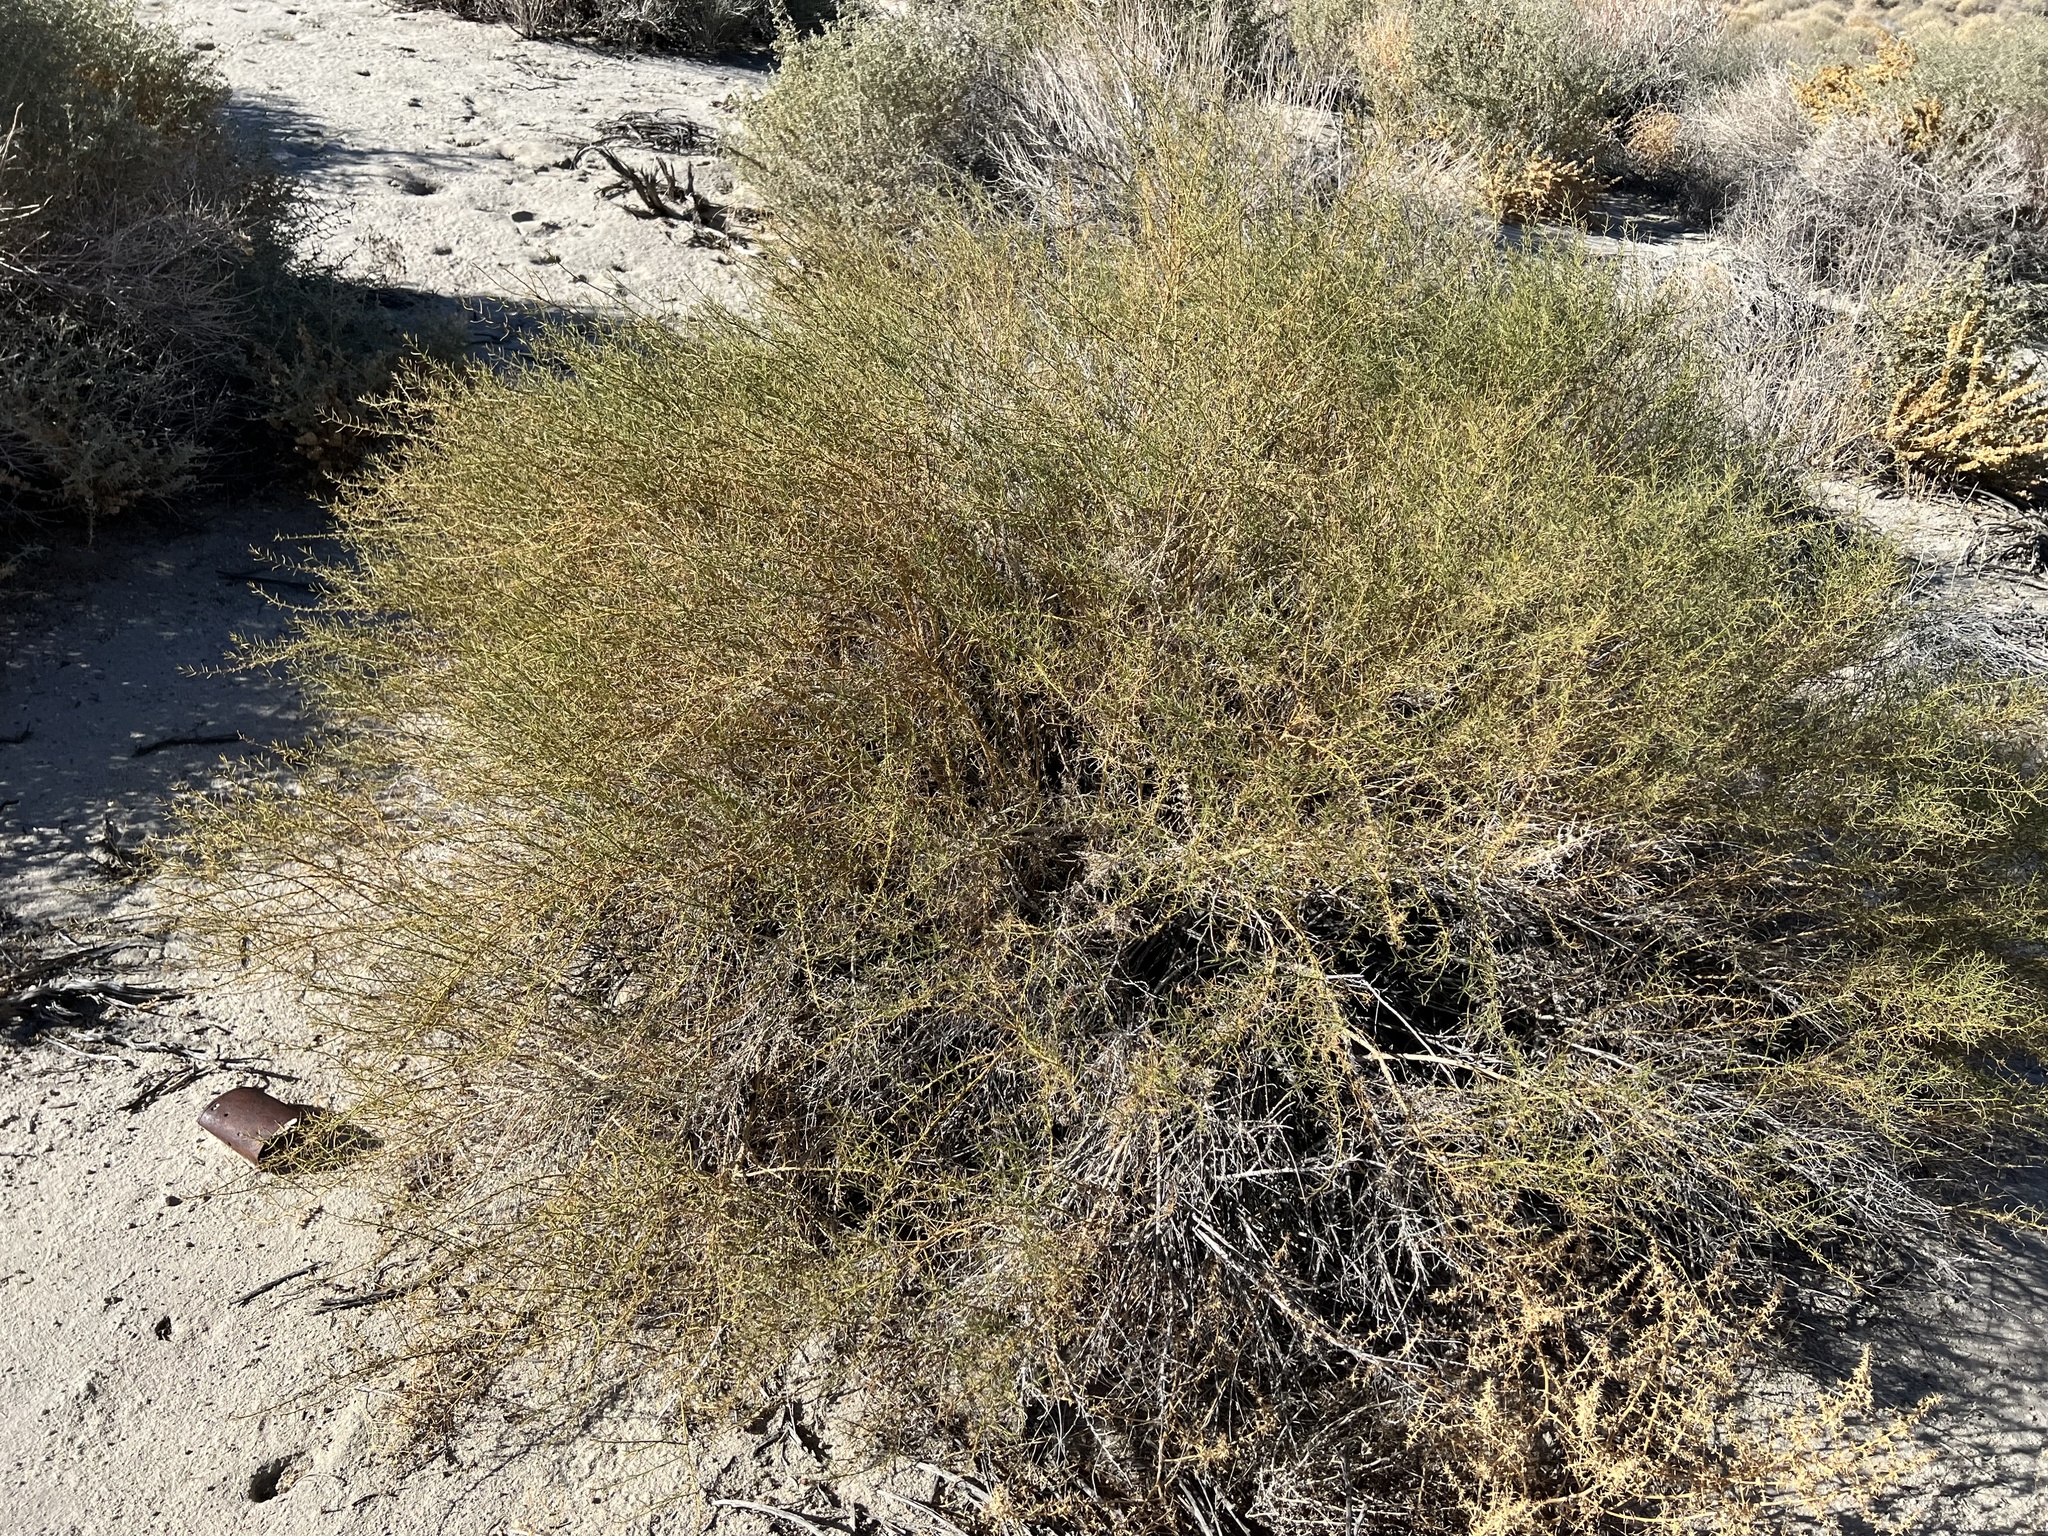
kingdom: Plantae
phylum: Tracheophyta
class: Magnoliopsida
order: Asterales
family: Asteraceae
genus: Ambrosia
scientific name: Ambrosia salsola
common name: Burrobrush
